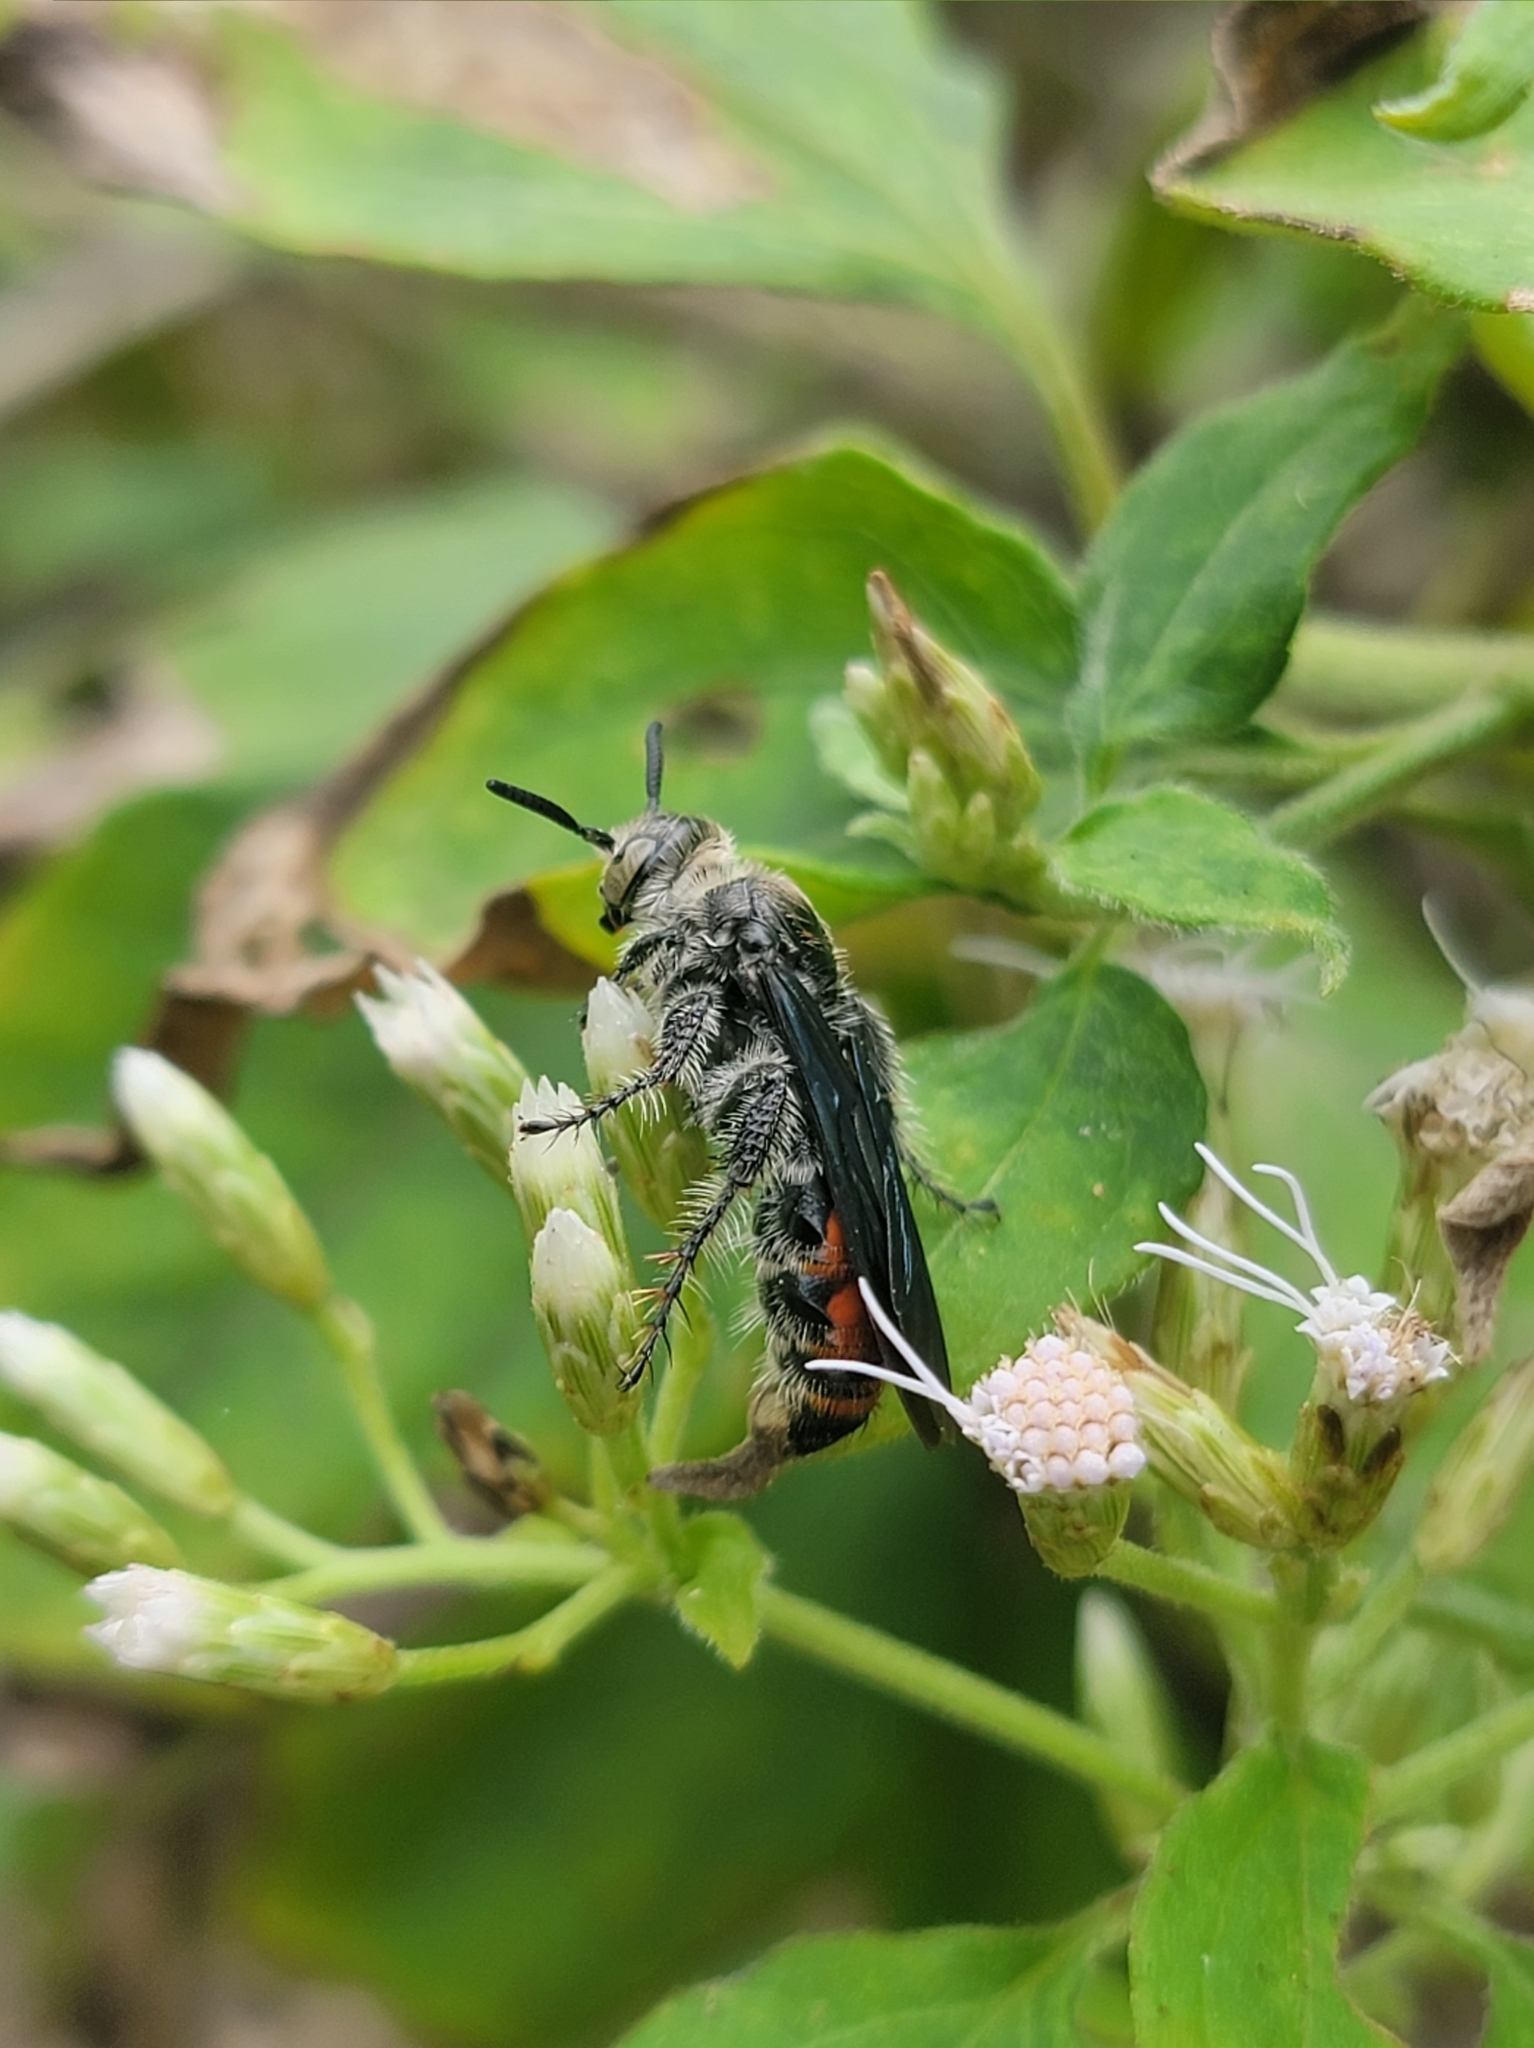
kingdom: Animalia
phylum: Arthropoda
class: Insecta
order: Hymenoptera
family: Scoliidae
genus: Dielis
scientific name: Dielis dorsata
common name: Scoliid wasp
